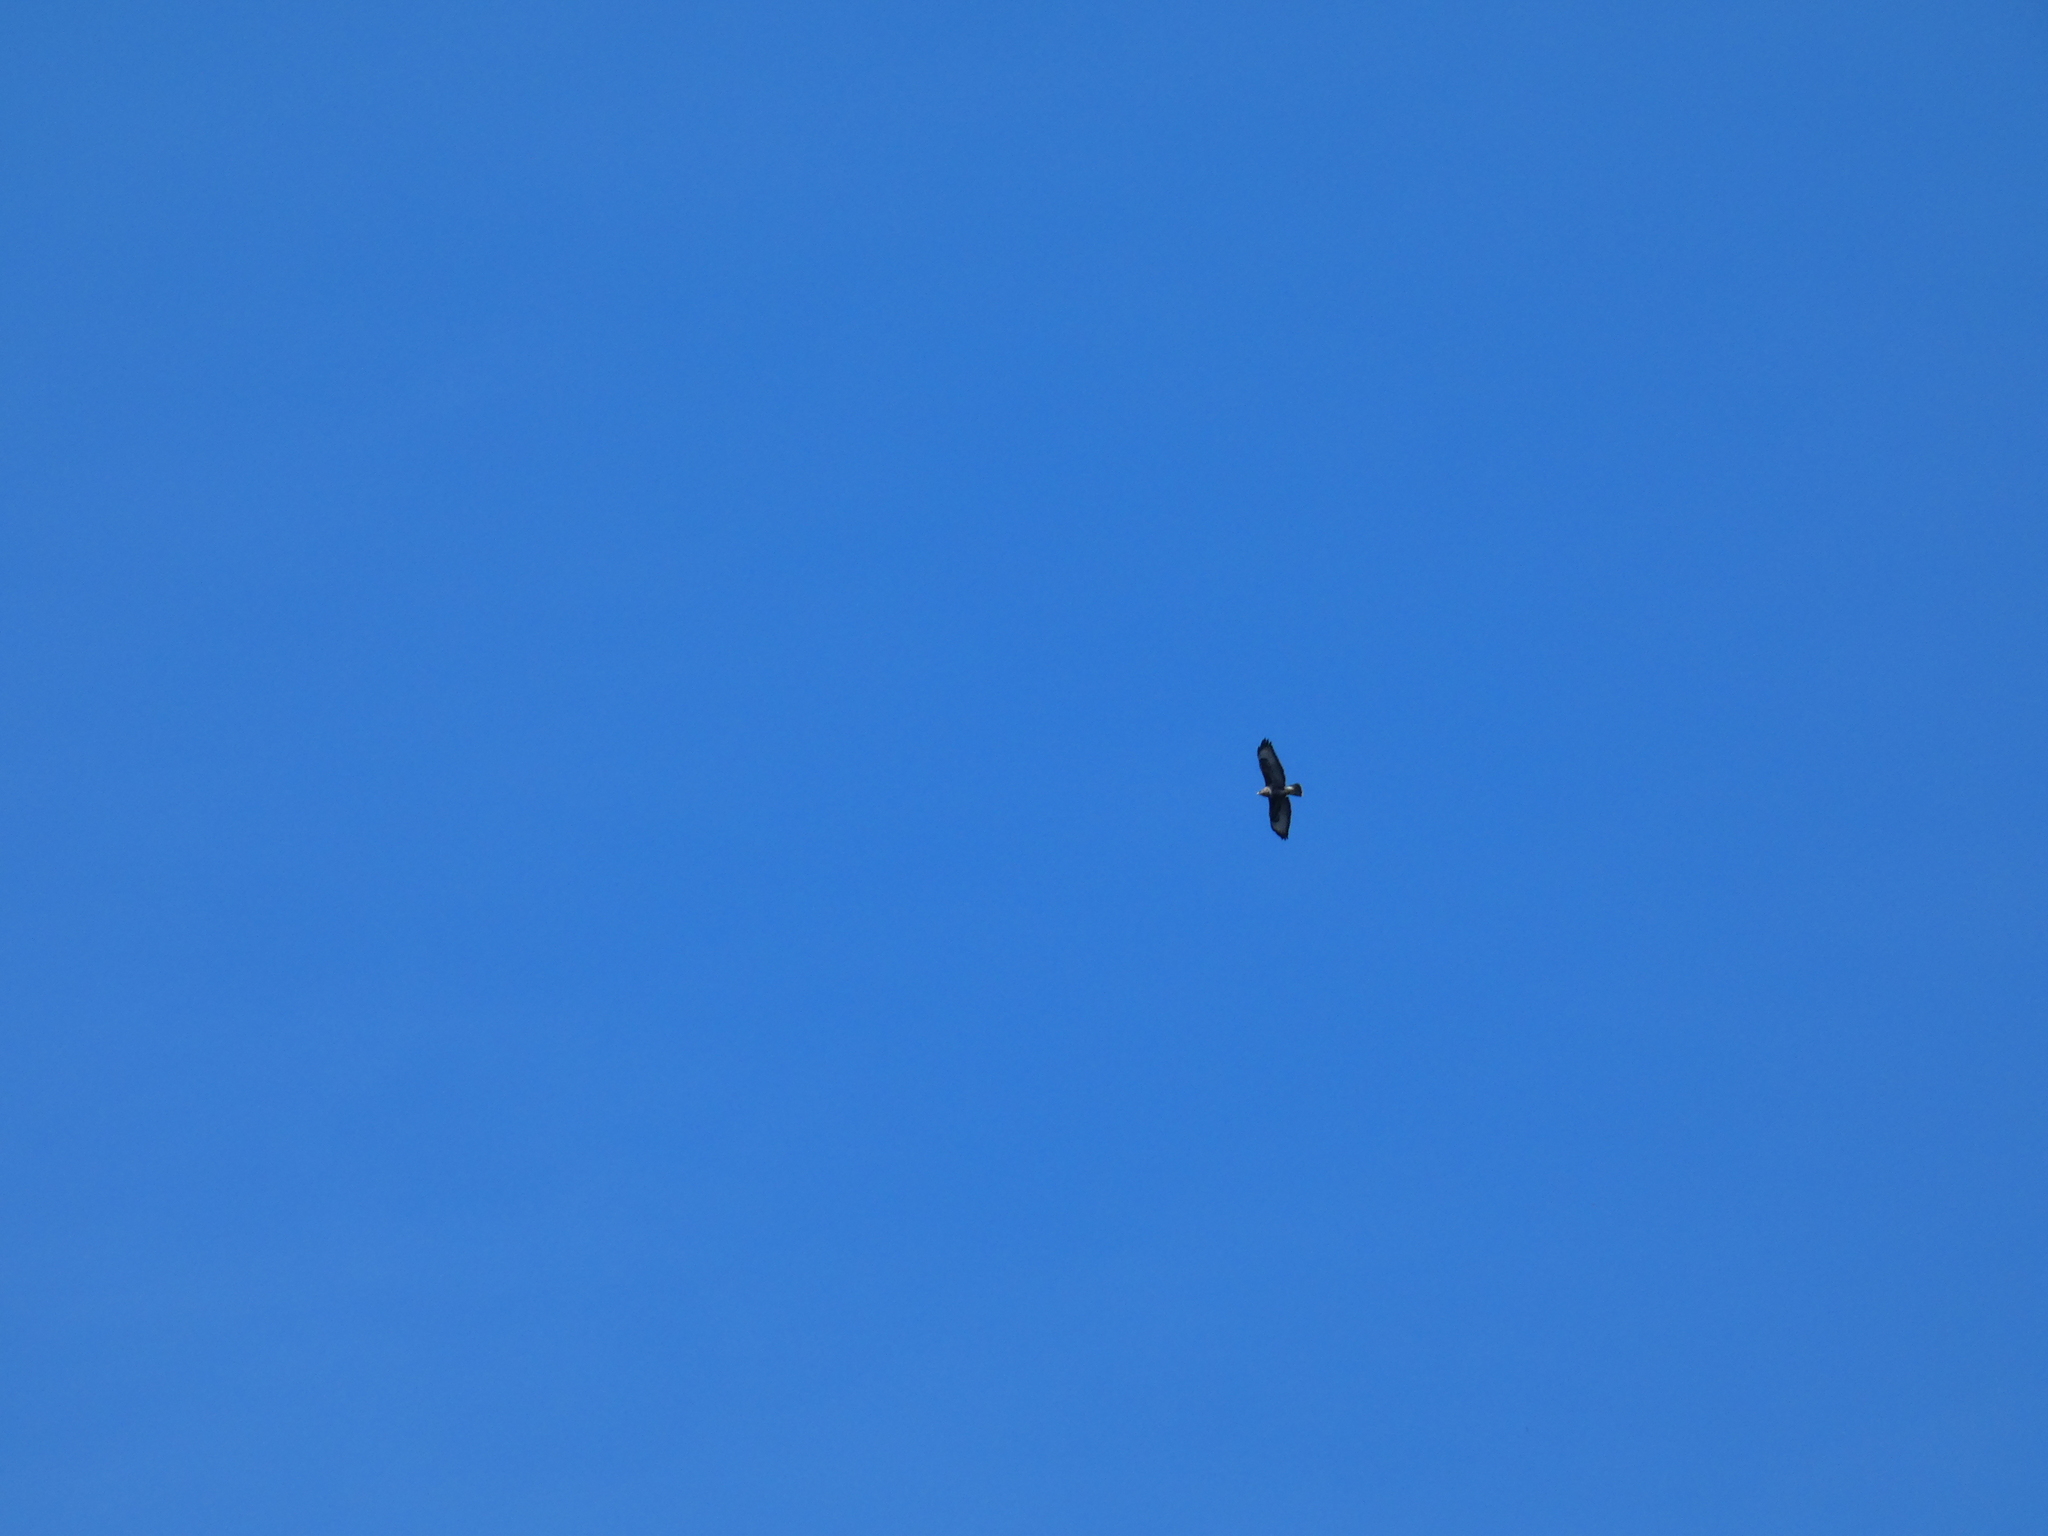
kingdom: Animalia
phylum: Chordata
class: Aves
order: Accipitriformes
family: Accipitridae
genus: Buteo
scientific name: Buteo buteo
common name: Common buzzard
